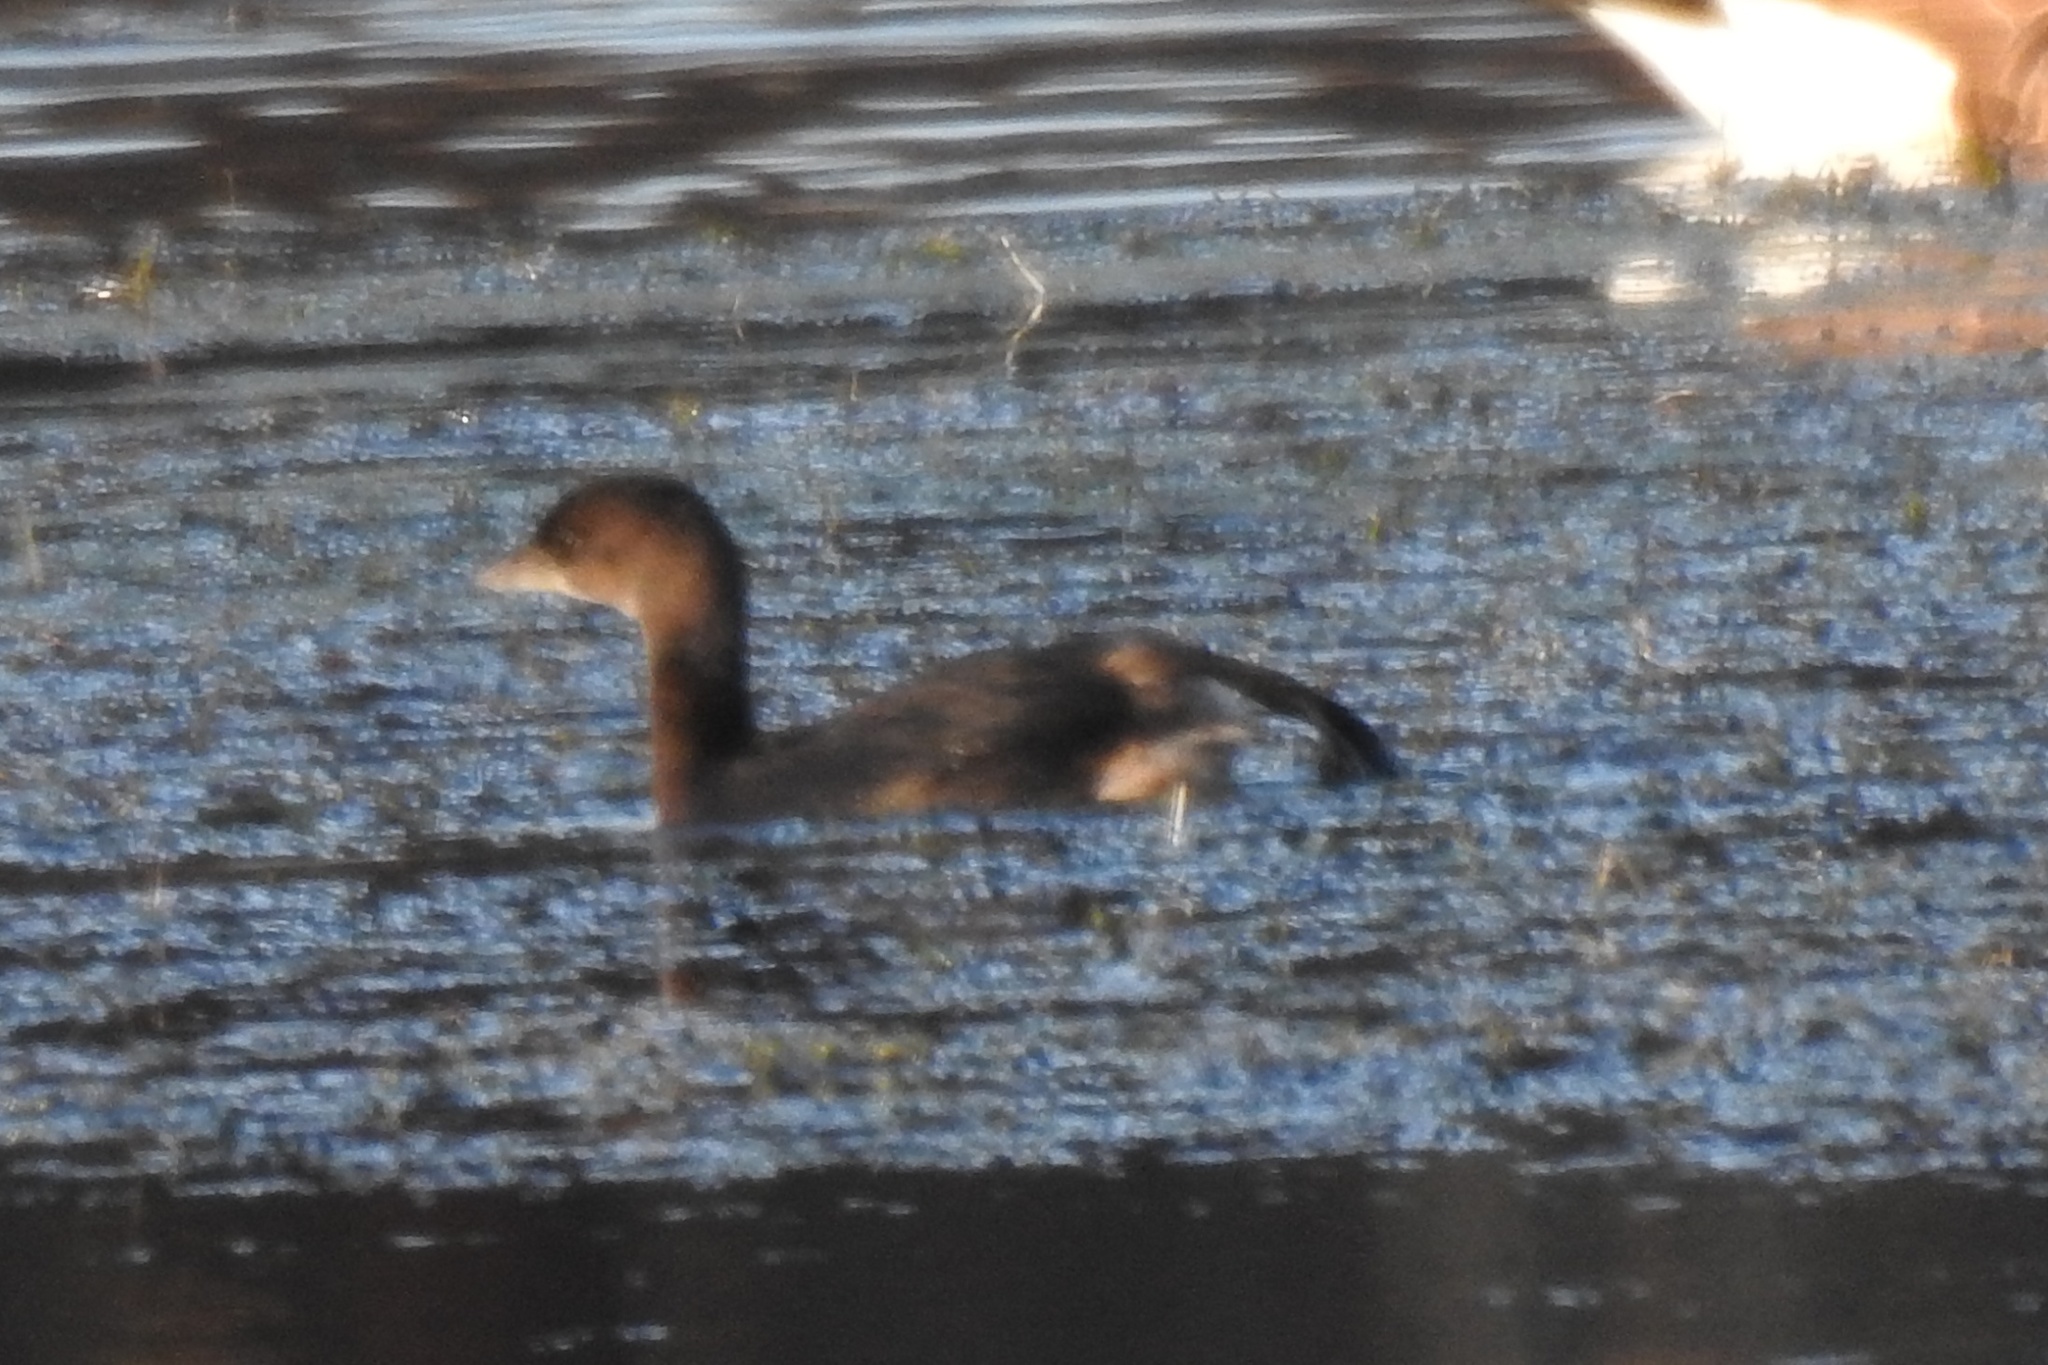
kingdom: Animalia
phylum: Chordata
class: Aves
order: Podicipediformes
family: Podicipedidae
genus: Podilymbus
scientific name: Podilymbus podiceps
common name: Pied-billed grebe
